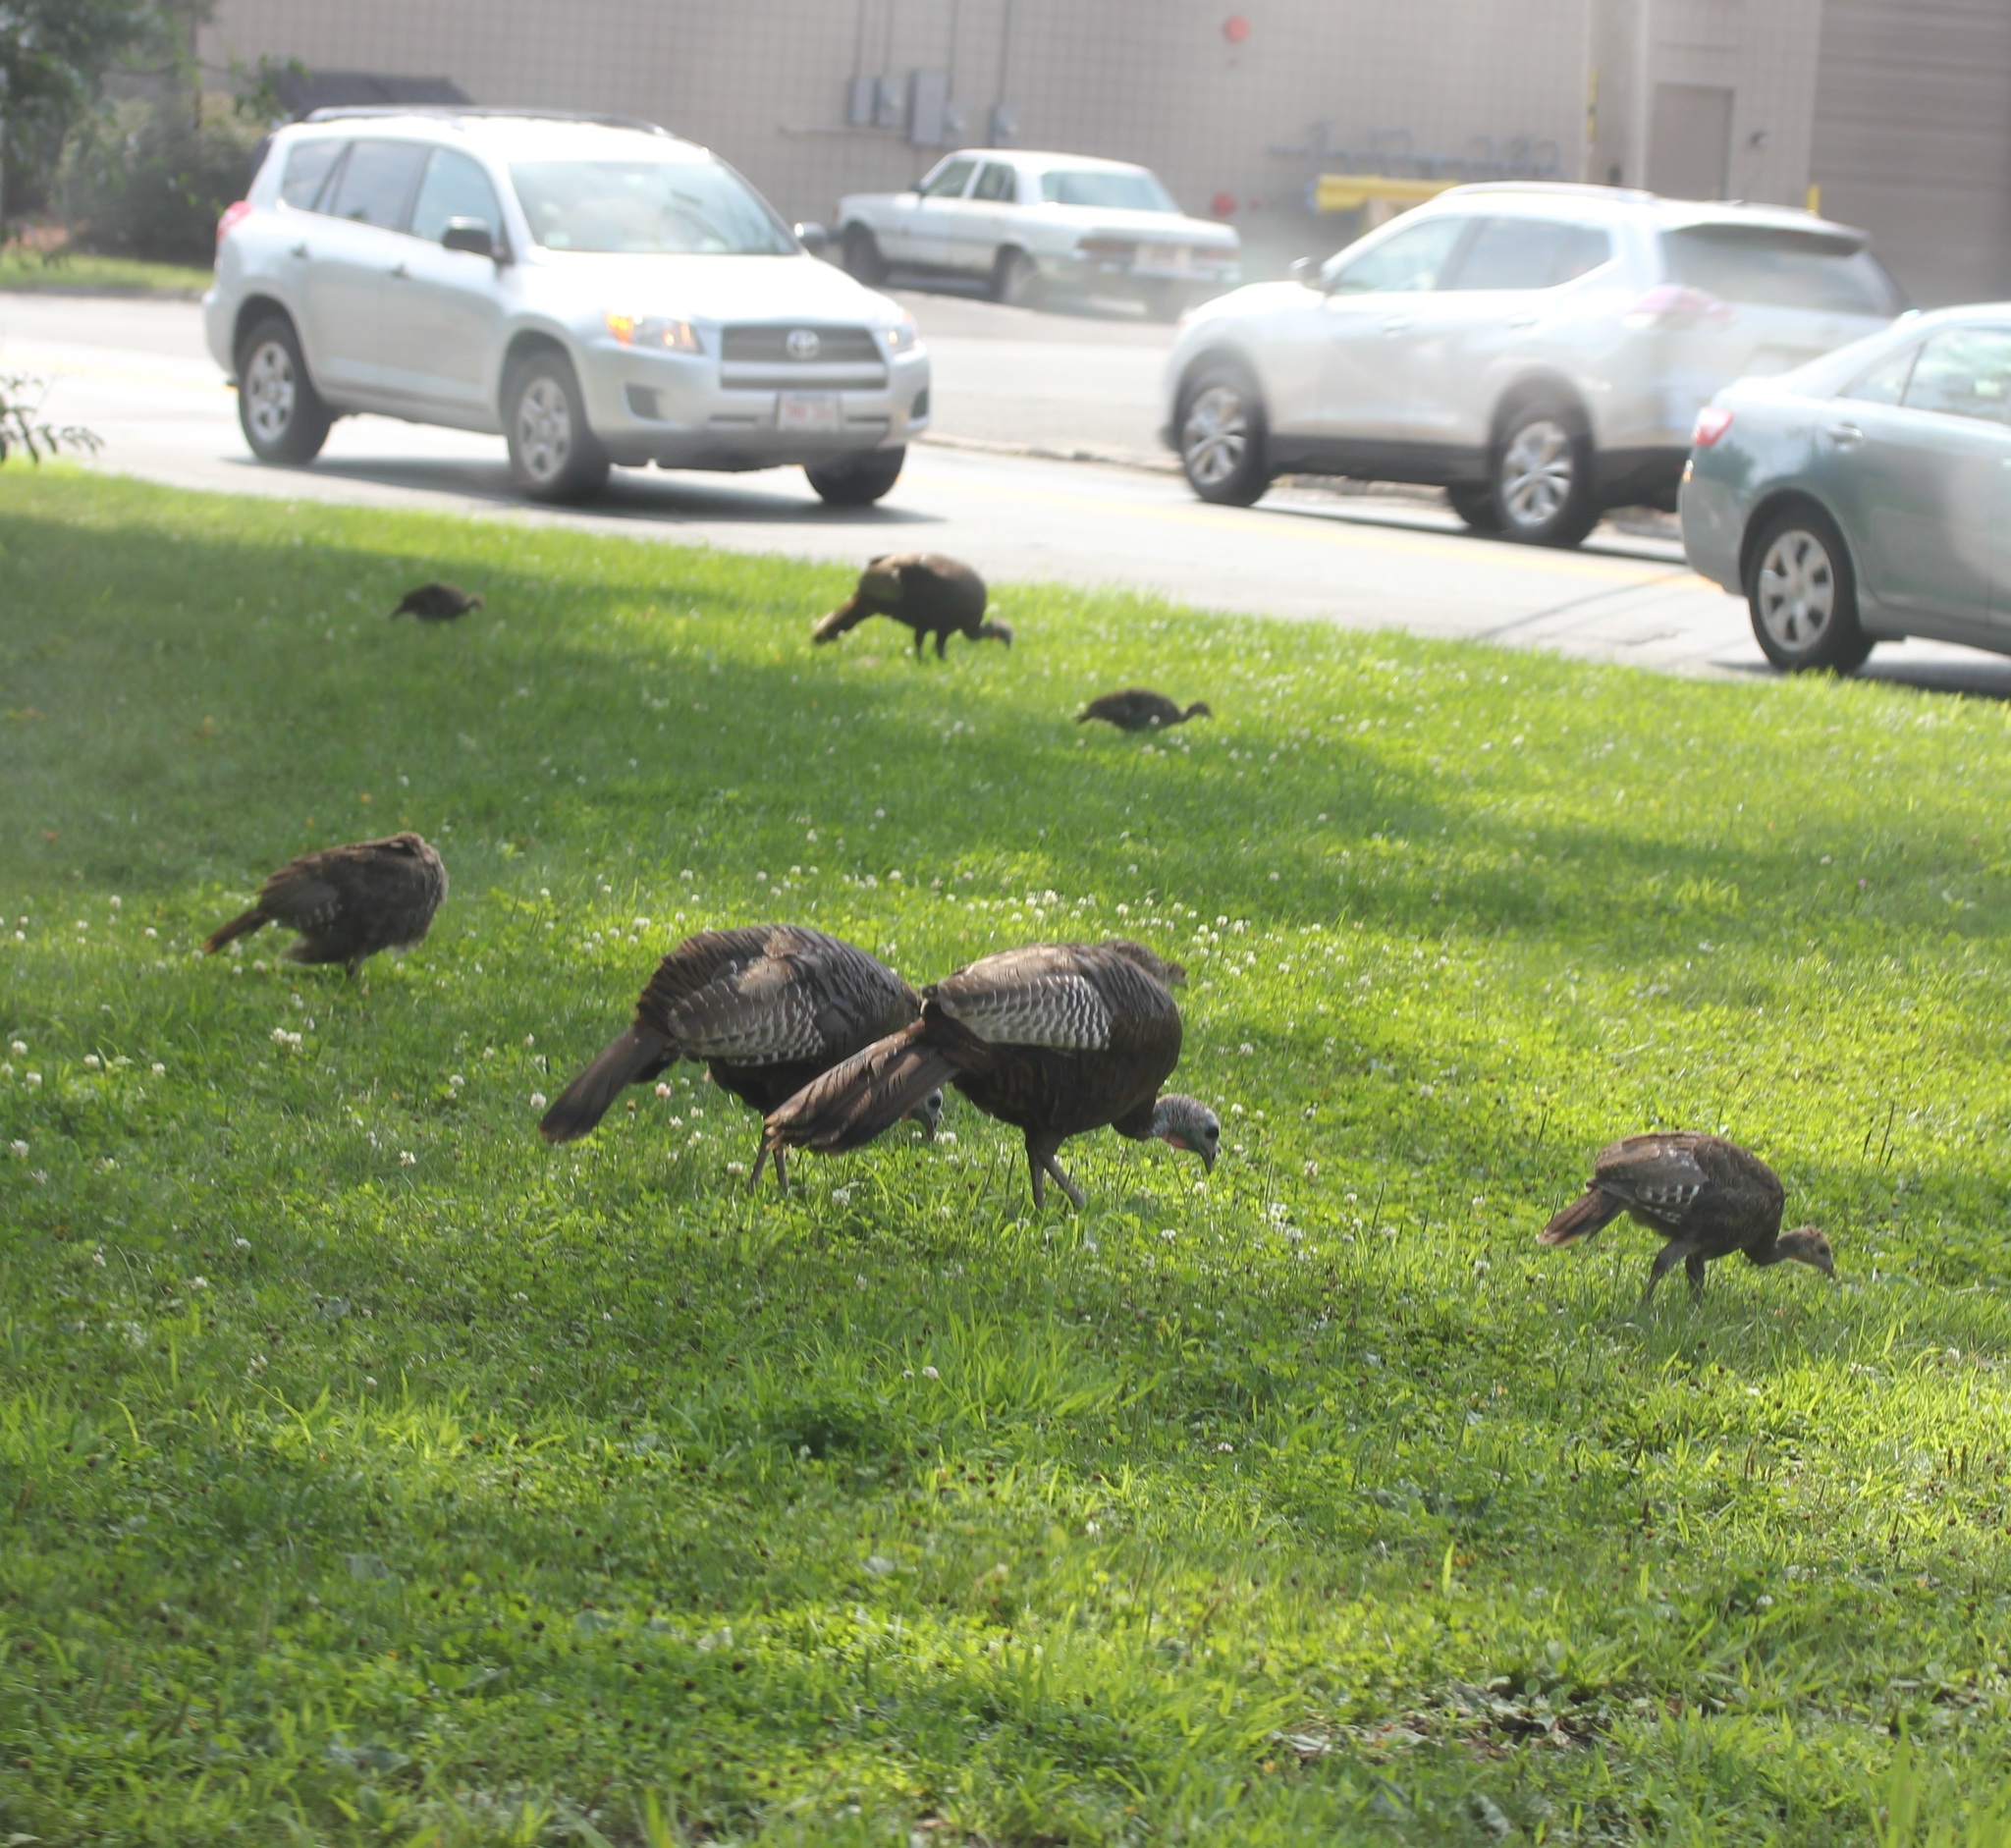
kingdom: Animalia
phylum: Chordata
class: Aves
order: Galliformes
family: Phasianidae
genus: Meleagris
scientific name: Meleagris gallopavo
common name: Wild turkey
